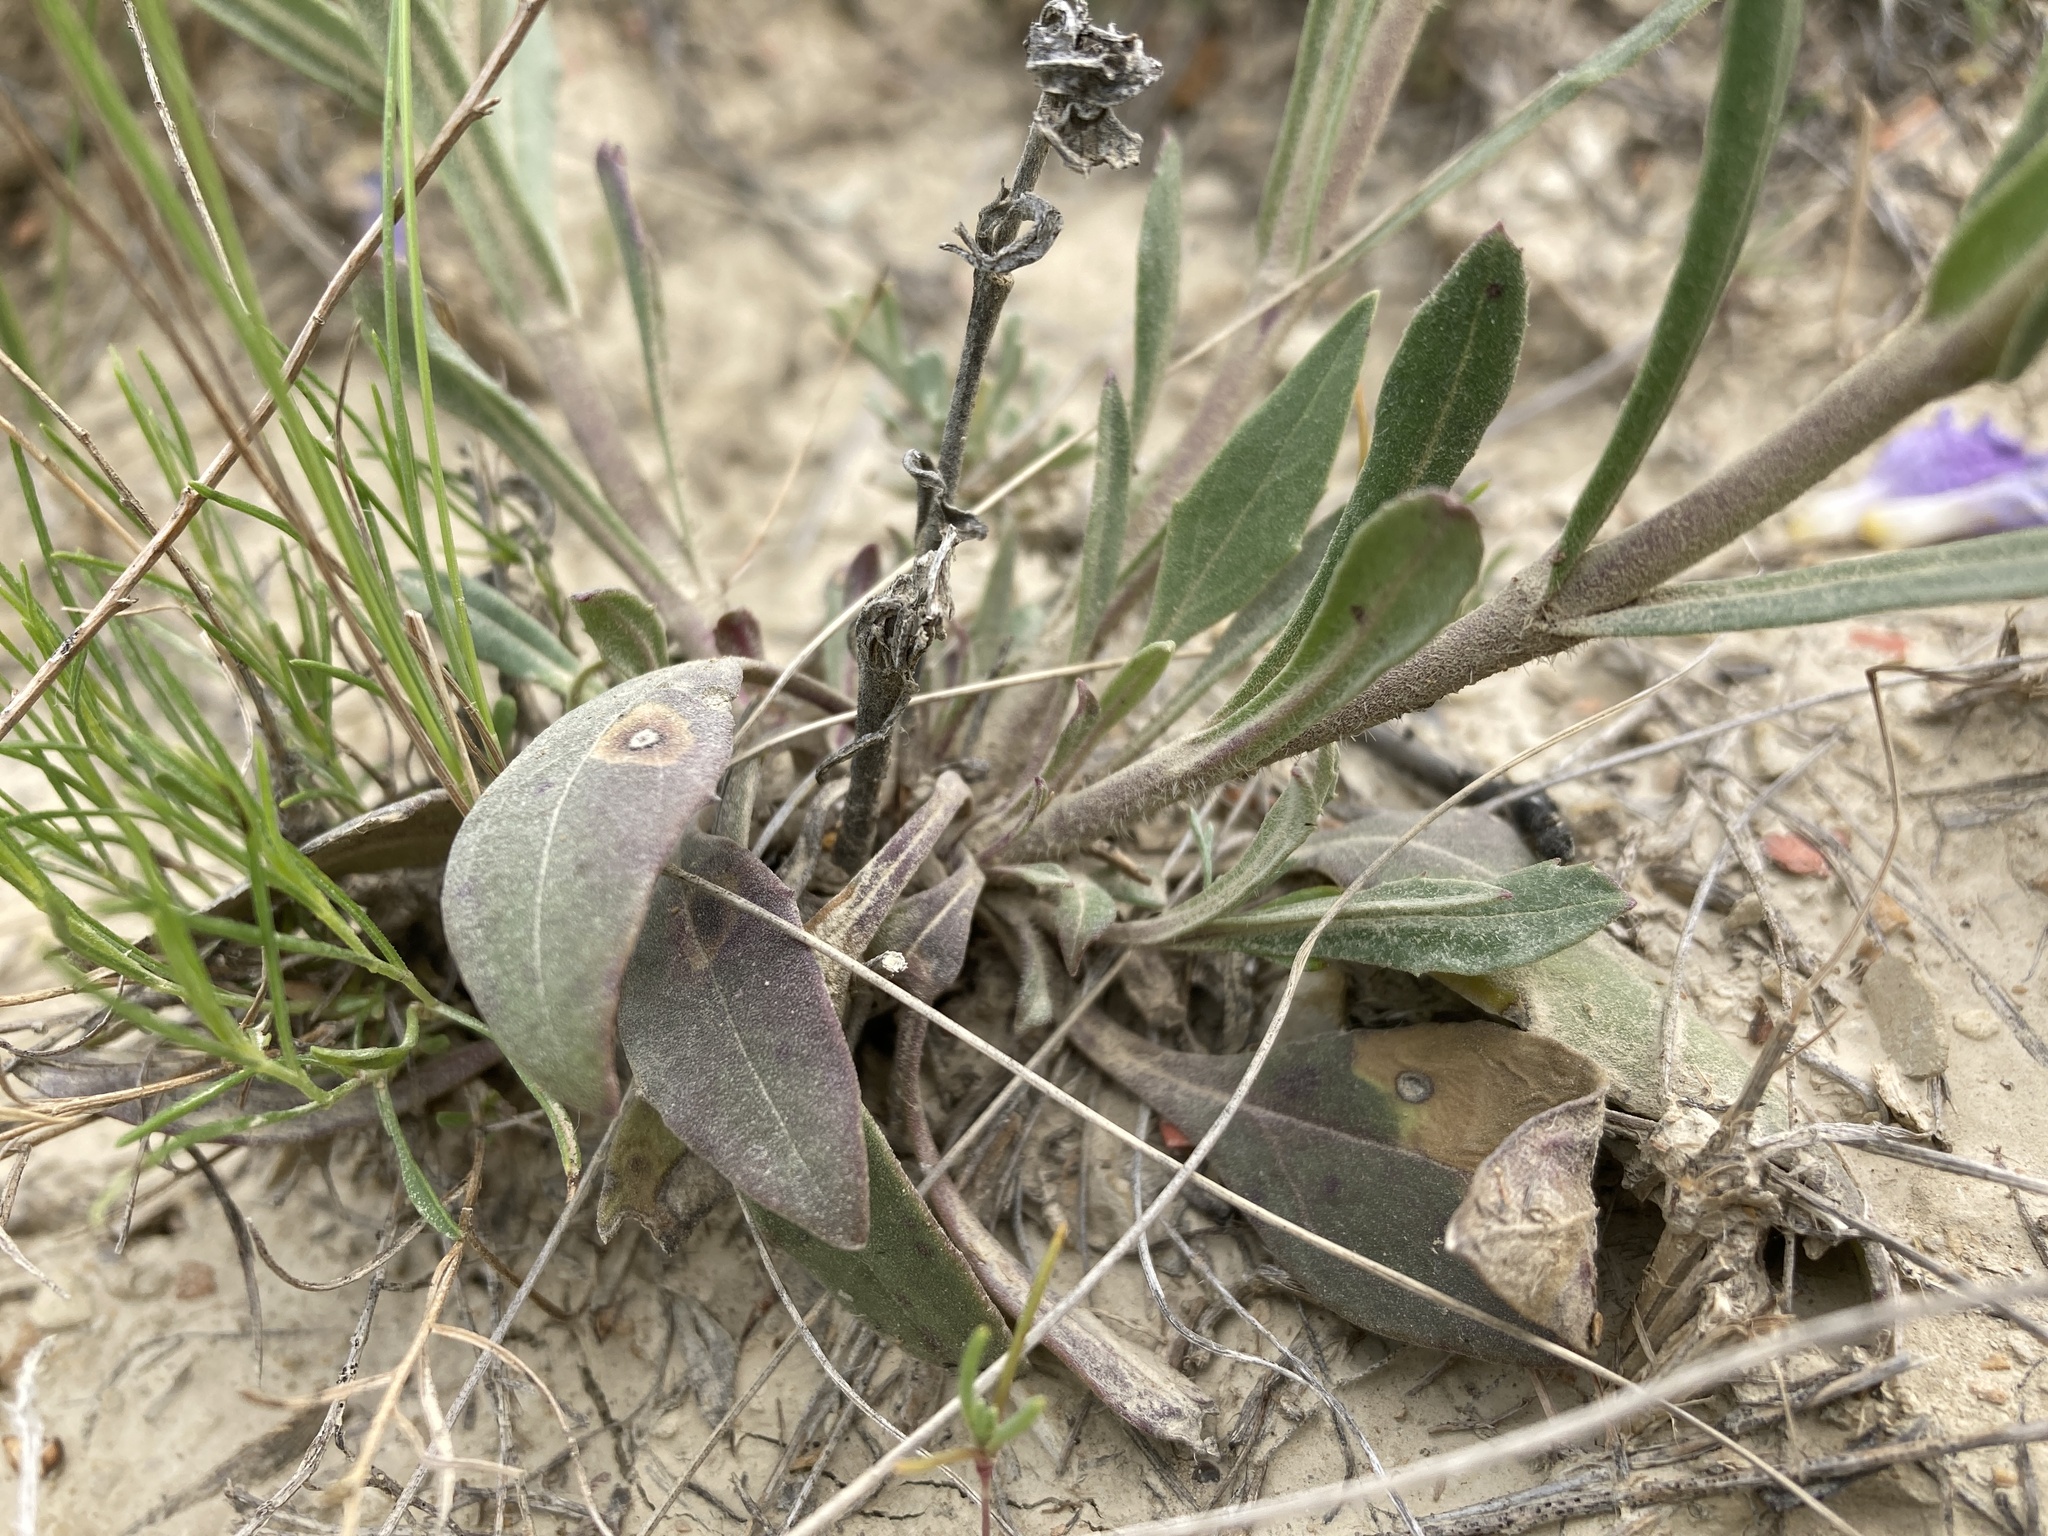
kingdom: Plantae
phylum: Tracheophyta
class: Magnoliopsida
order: Lamiales
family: Plantaginaceae
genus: Penstemon
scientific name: Penstemon eriantherus
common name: Crested beardtongue
